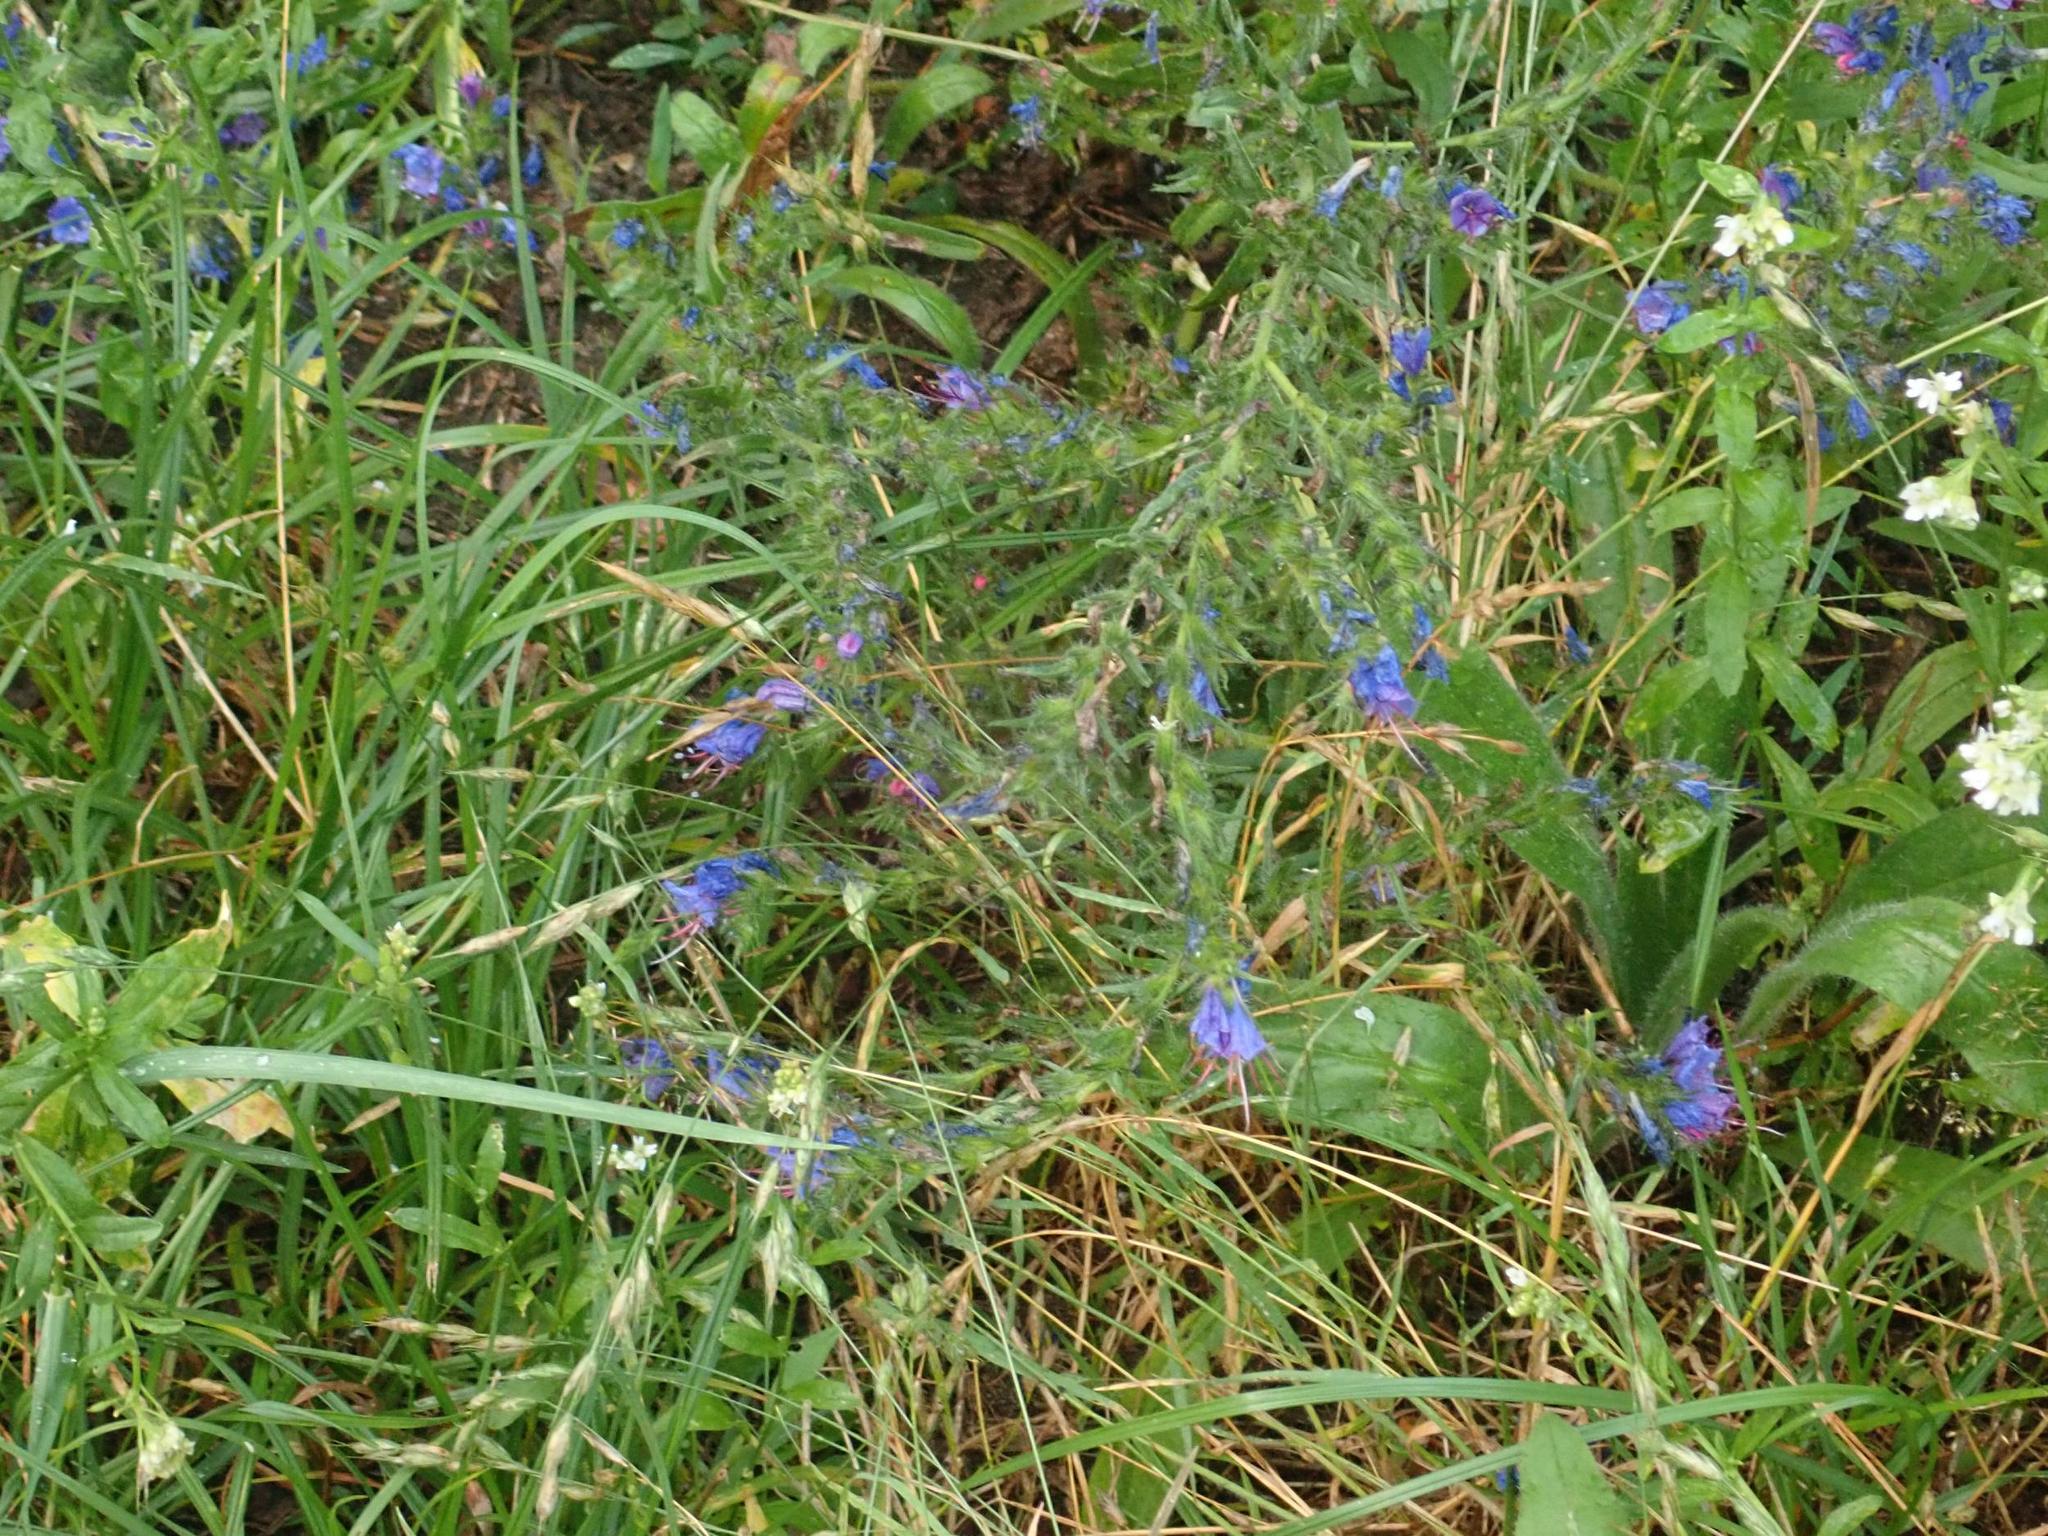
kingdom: Plantae
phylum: Tracheophyta
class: Magnoliopsida
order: Boraginales
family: Boraginaceae
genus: Echium
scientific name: Echium vulgare
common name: Common viper's bugloss
